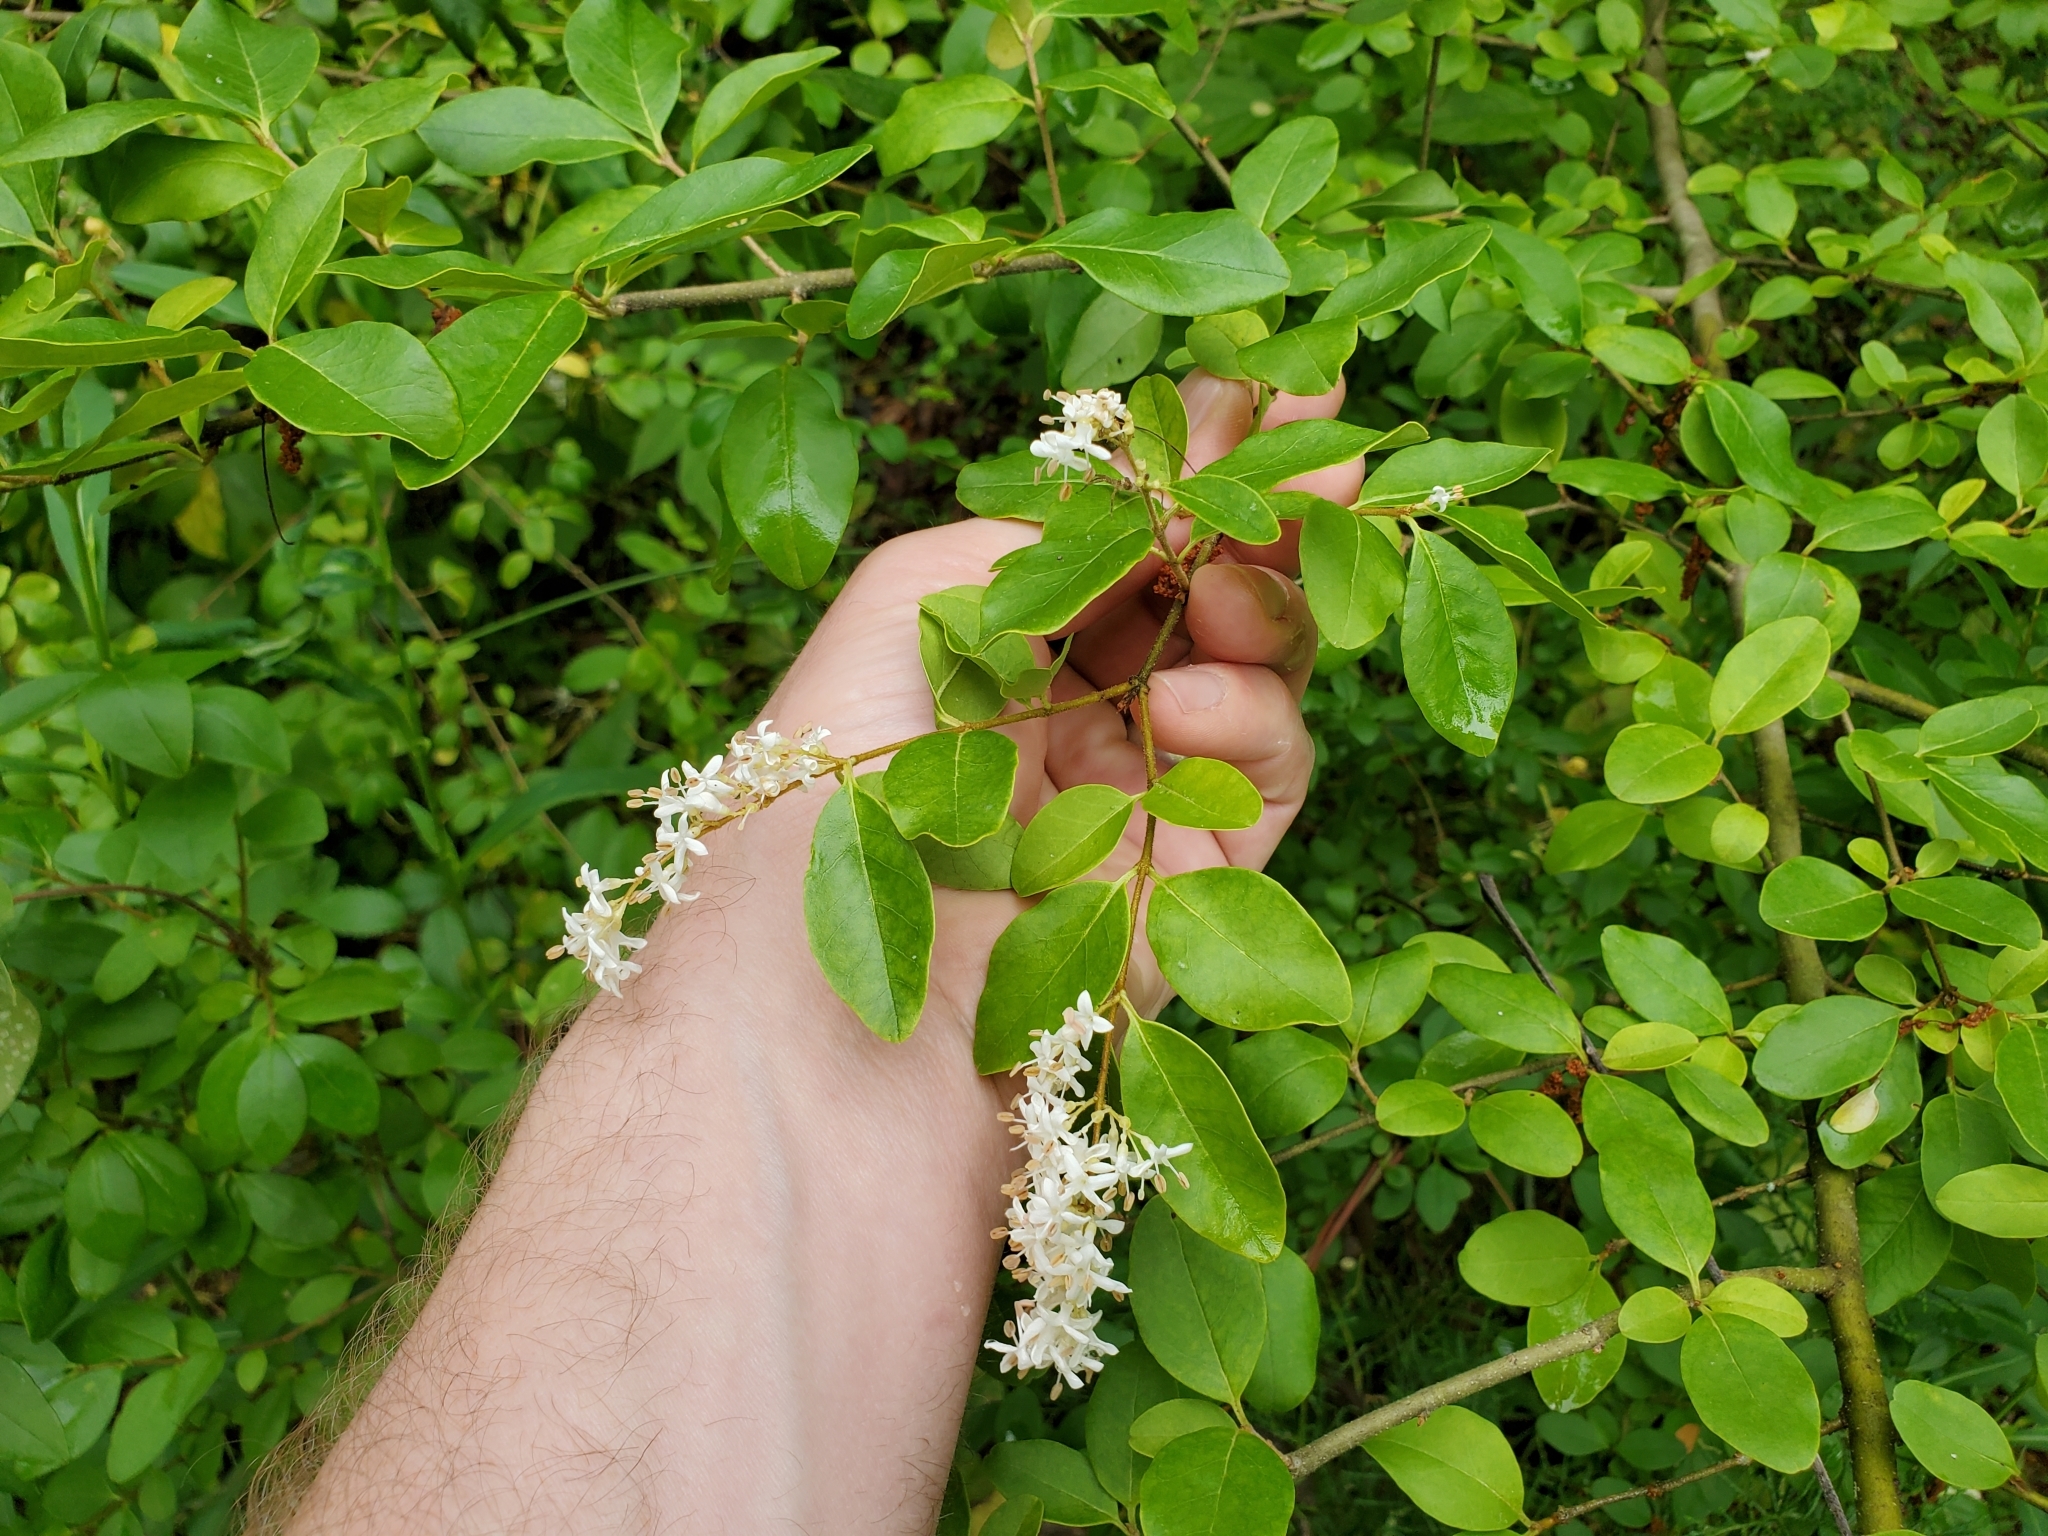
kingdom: Plantae
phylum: Tracheophyta
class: Magnoliopsida
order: Lamiales
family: Oleaceae
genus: Ligustrum
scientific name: Ligustrum sinense
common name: Chinese privet
